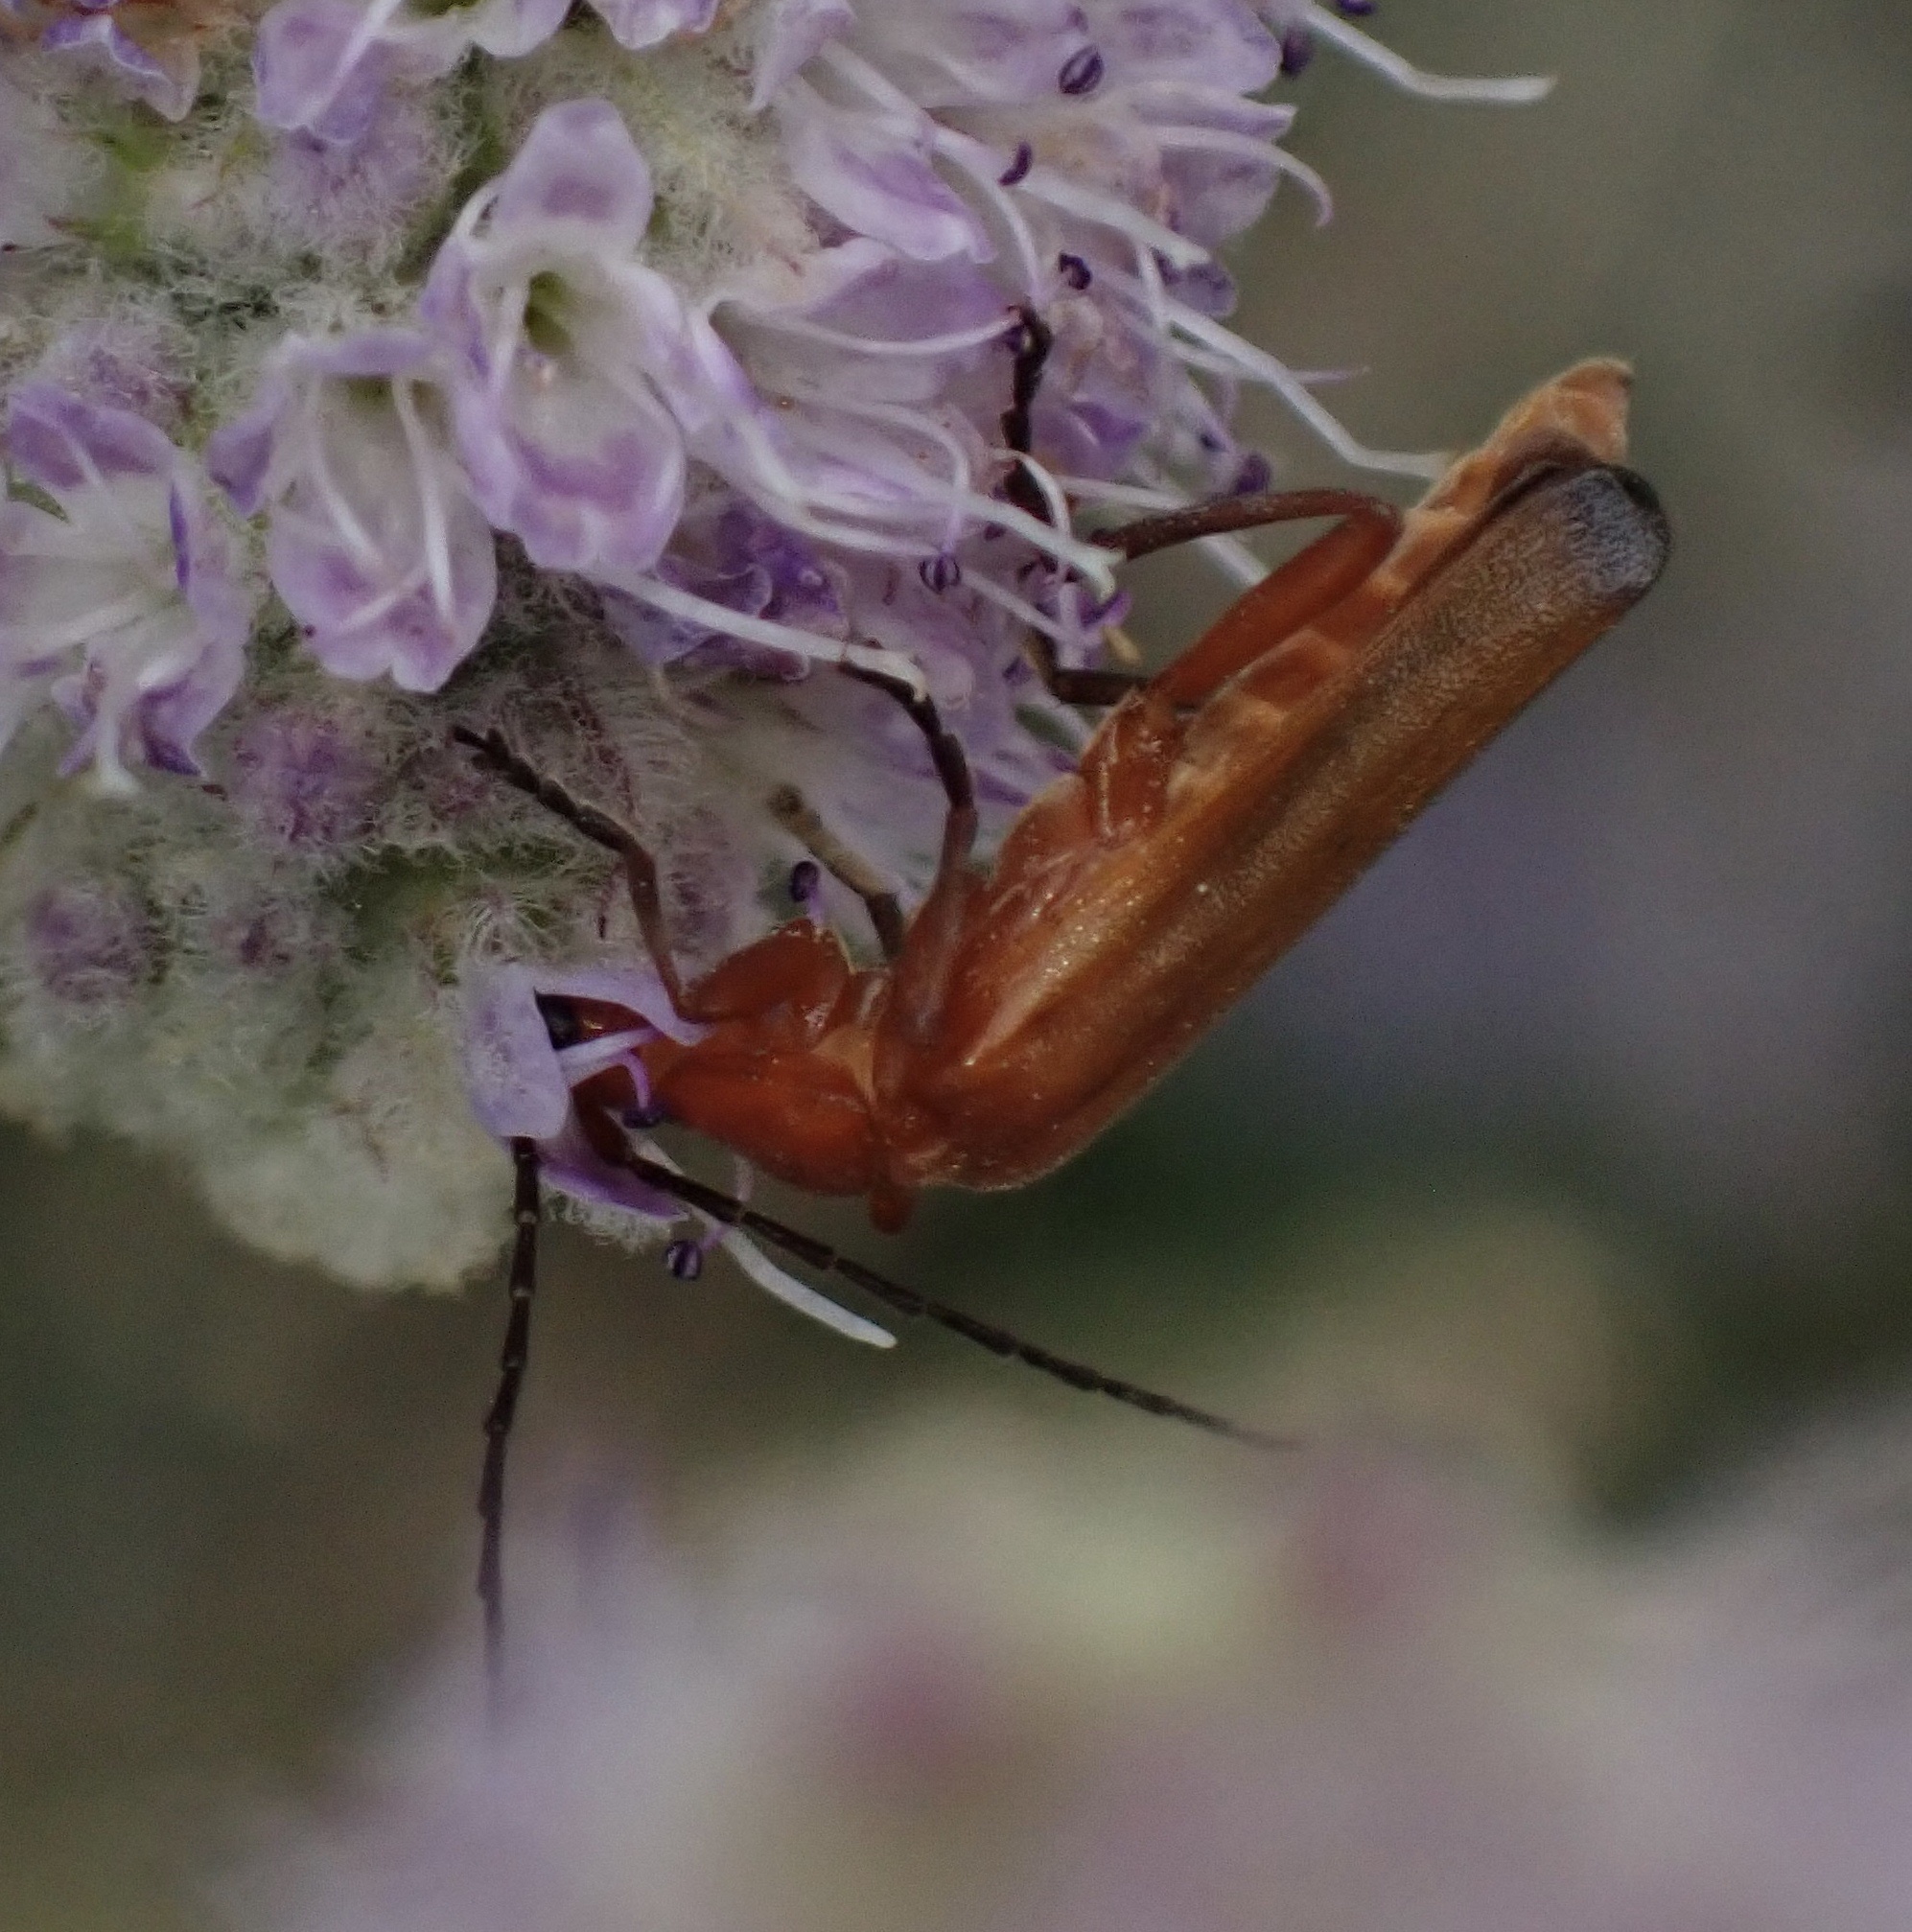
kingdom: Animalia
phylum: Arthropoda
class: Insecta
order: Coleoptera
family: Cantharidae
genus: Rhagonycha
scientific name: Rhagonycha fulva
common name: Common red soldier beetle
